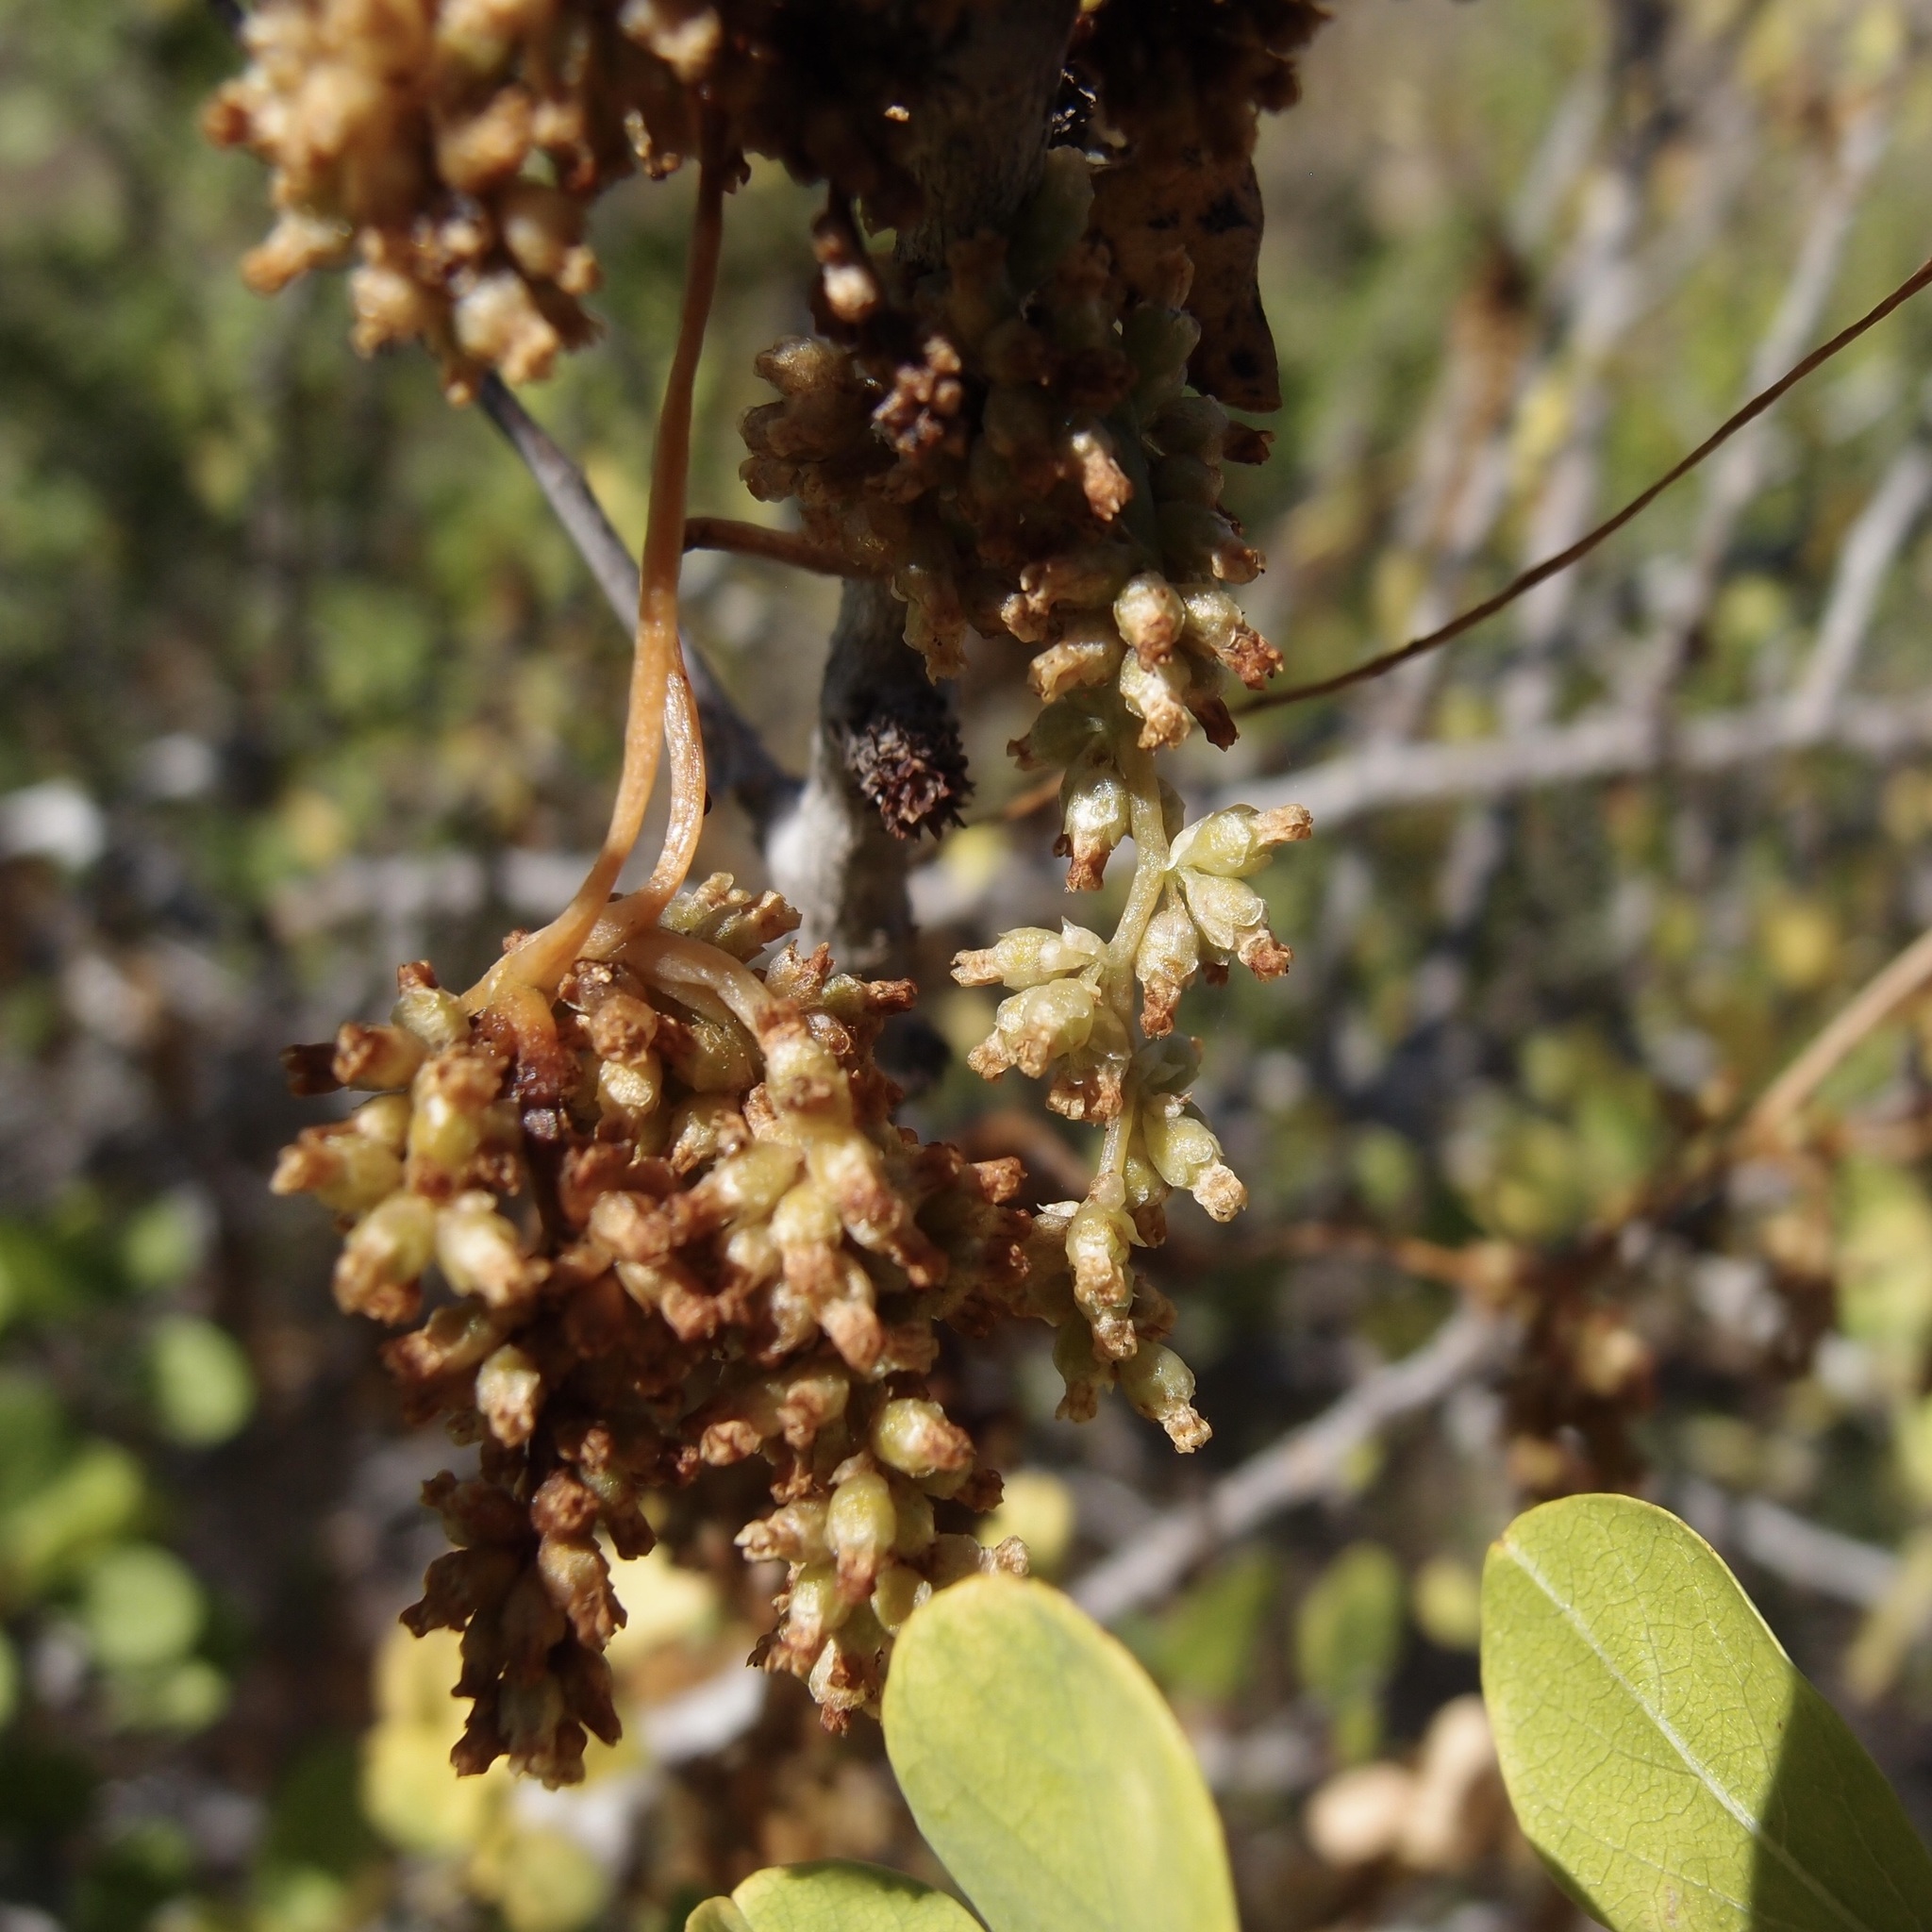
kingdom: Plantae
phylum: Tracheophyta
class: Magnoliopsida
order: Solanales
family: Convolvulaceae
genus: Cuscuta
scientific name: Cuscuta americana
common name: American dodder
